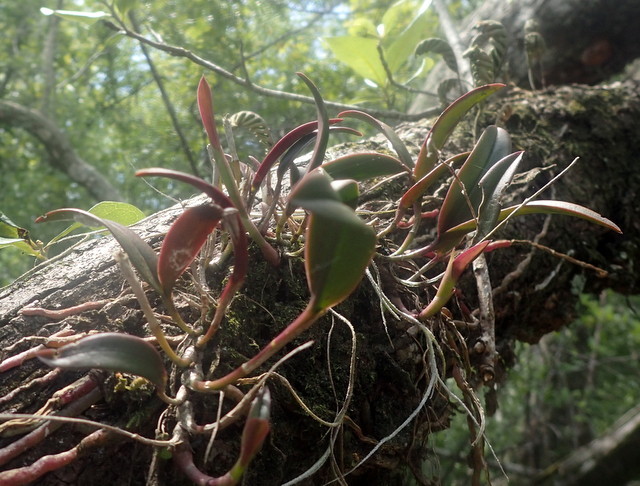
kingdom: Plantae
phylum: Tracheophyta
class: Liliopsida
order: Asparagales
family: Orchidaceae
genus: Epidendrum
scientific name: Epidendrum conopseum
